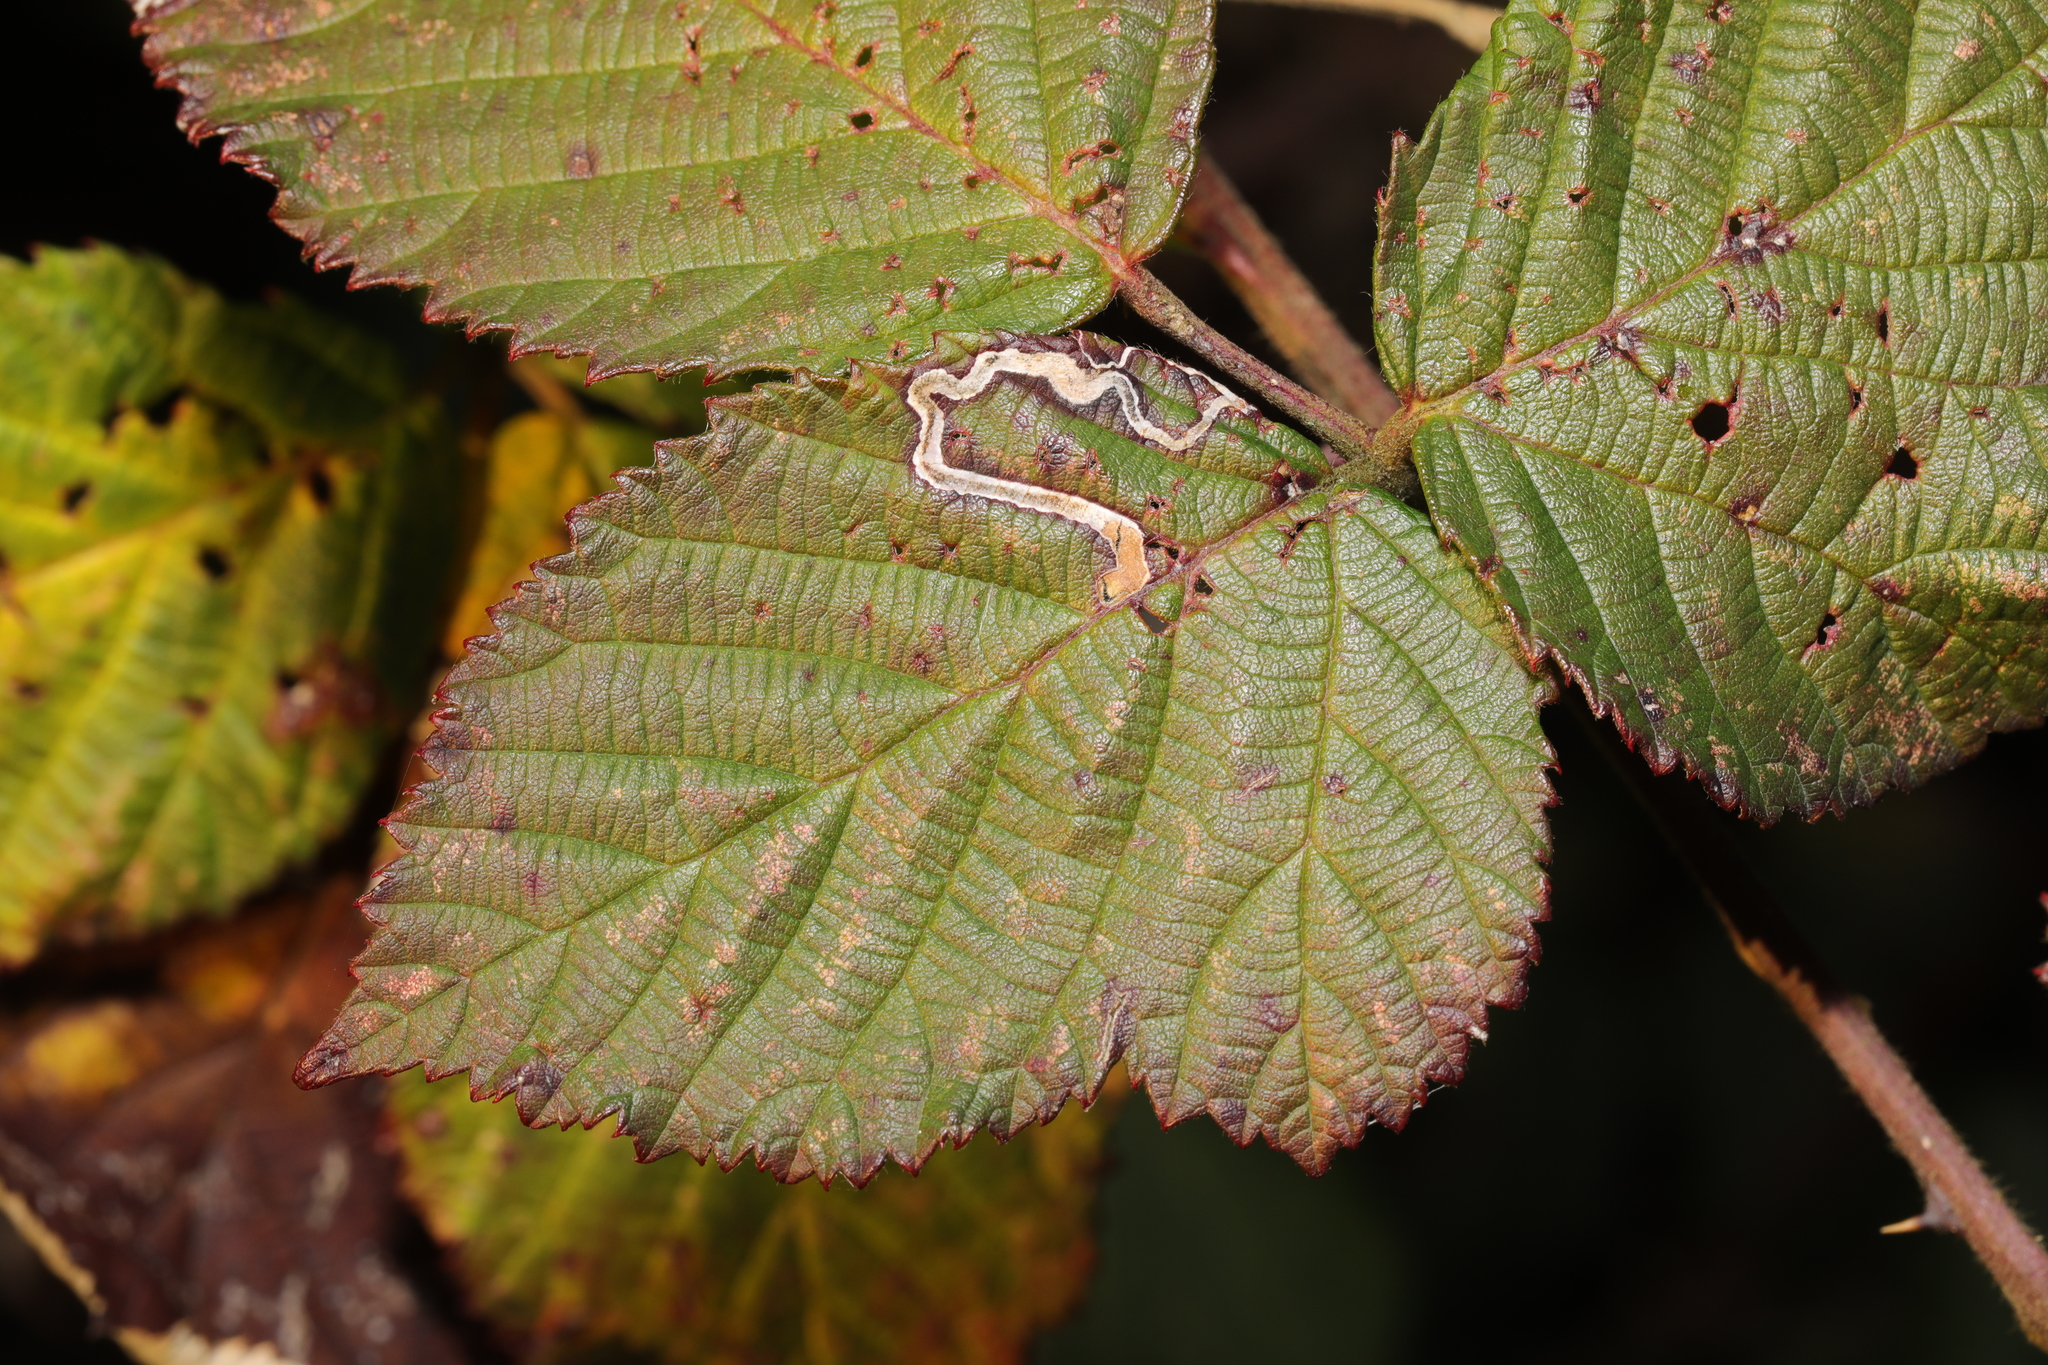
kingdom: Animalia
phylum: Arthropoda
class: Insecta
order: Lepidoptera
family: Nepticulidae
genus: Stigmella
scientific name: Stigmella aurella
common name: Golden pigmy
